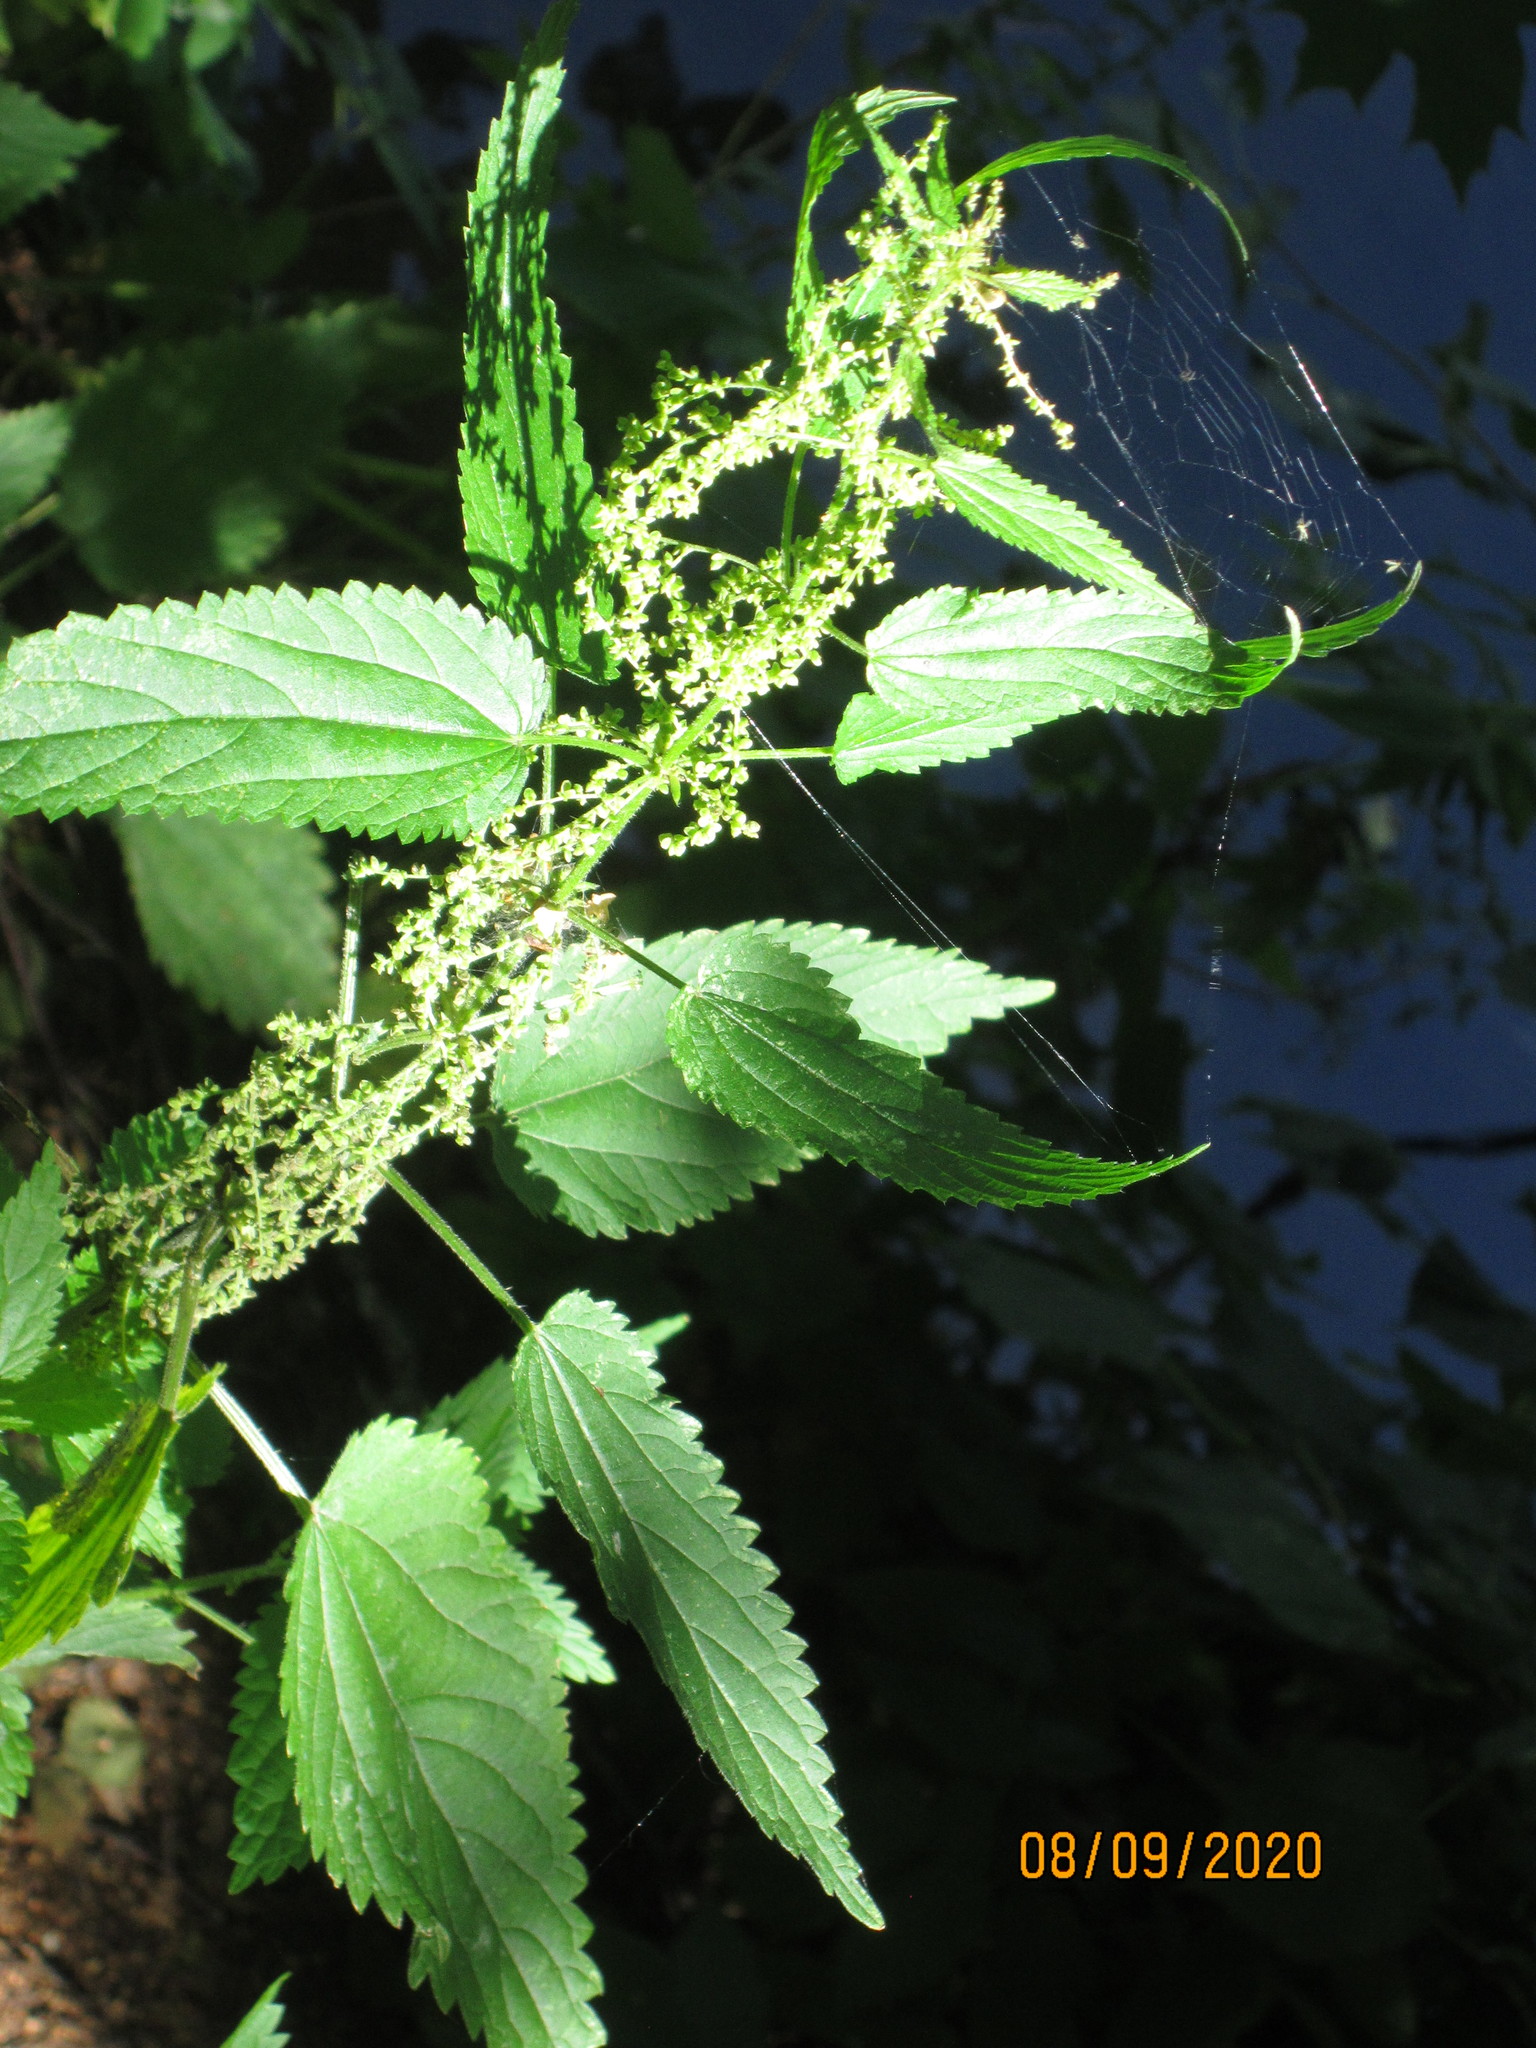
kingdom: Plantae
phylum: Tracheophyta
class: Magnoliopsida
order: Rosales
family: Urticaceae
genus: Urtica
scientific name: Urtica dioica
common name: Common nettle
